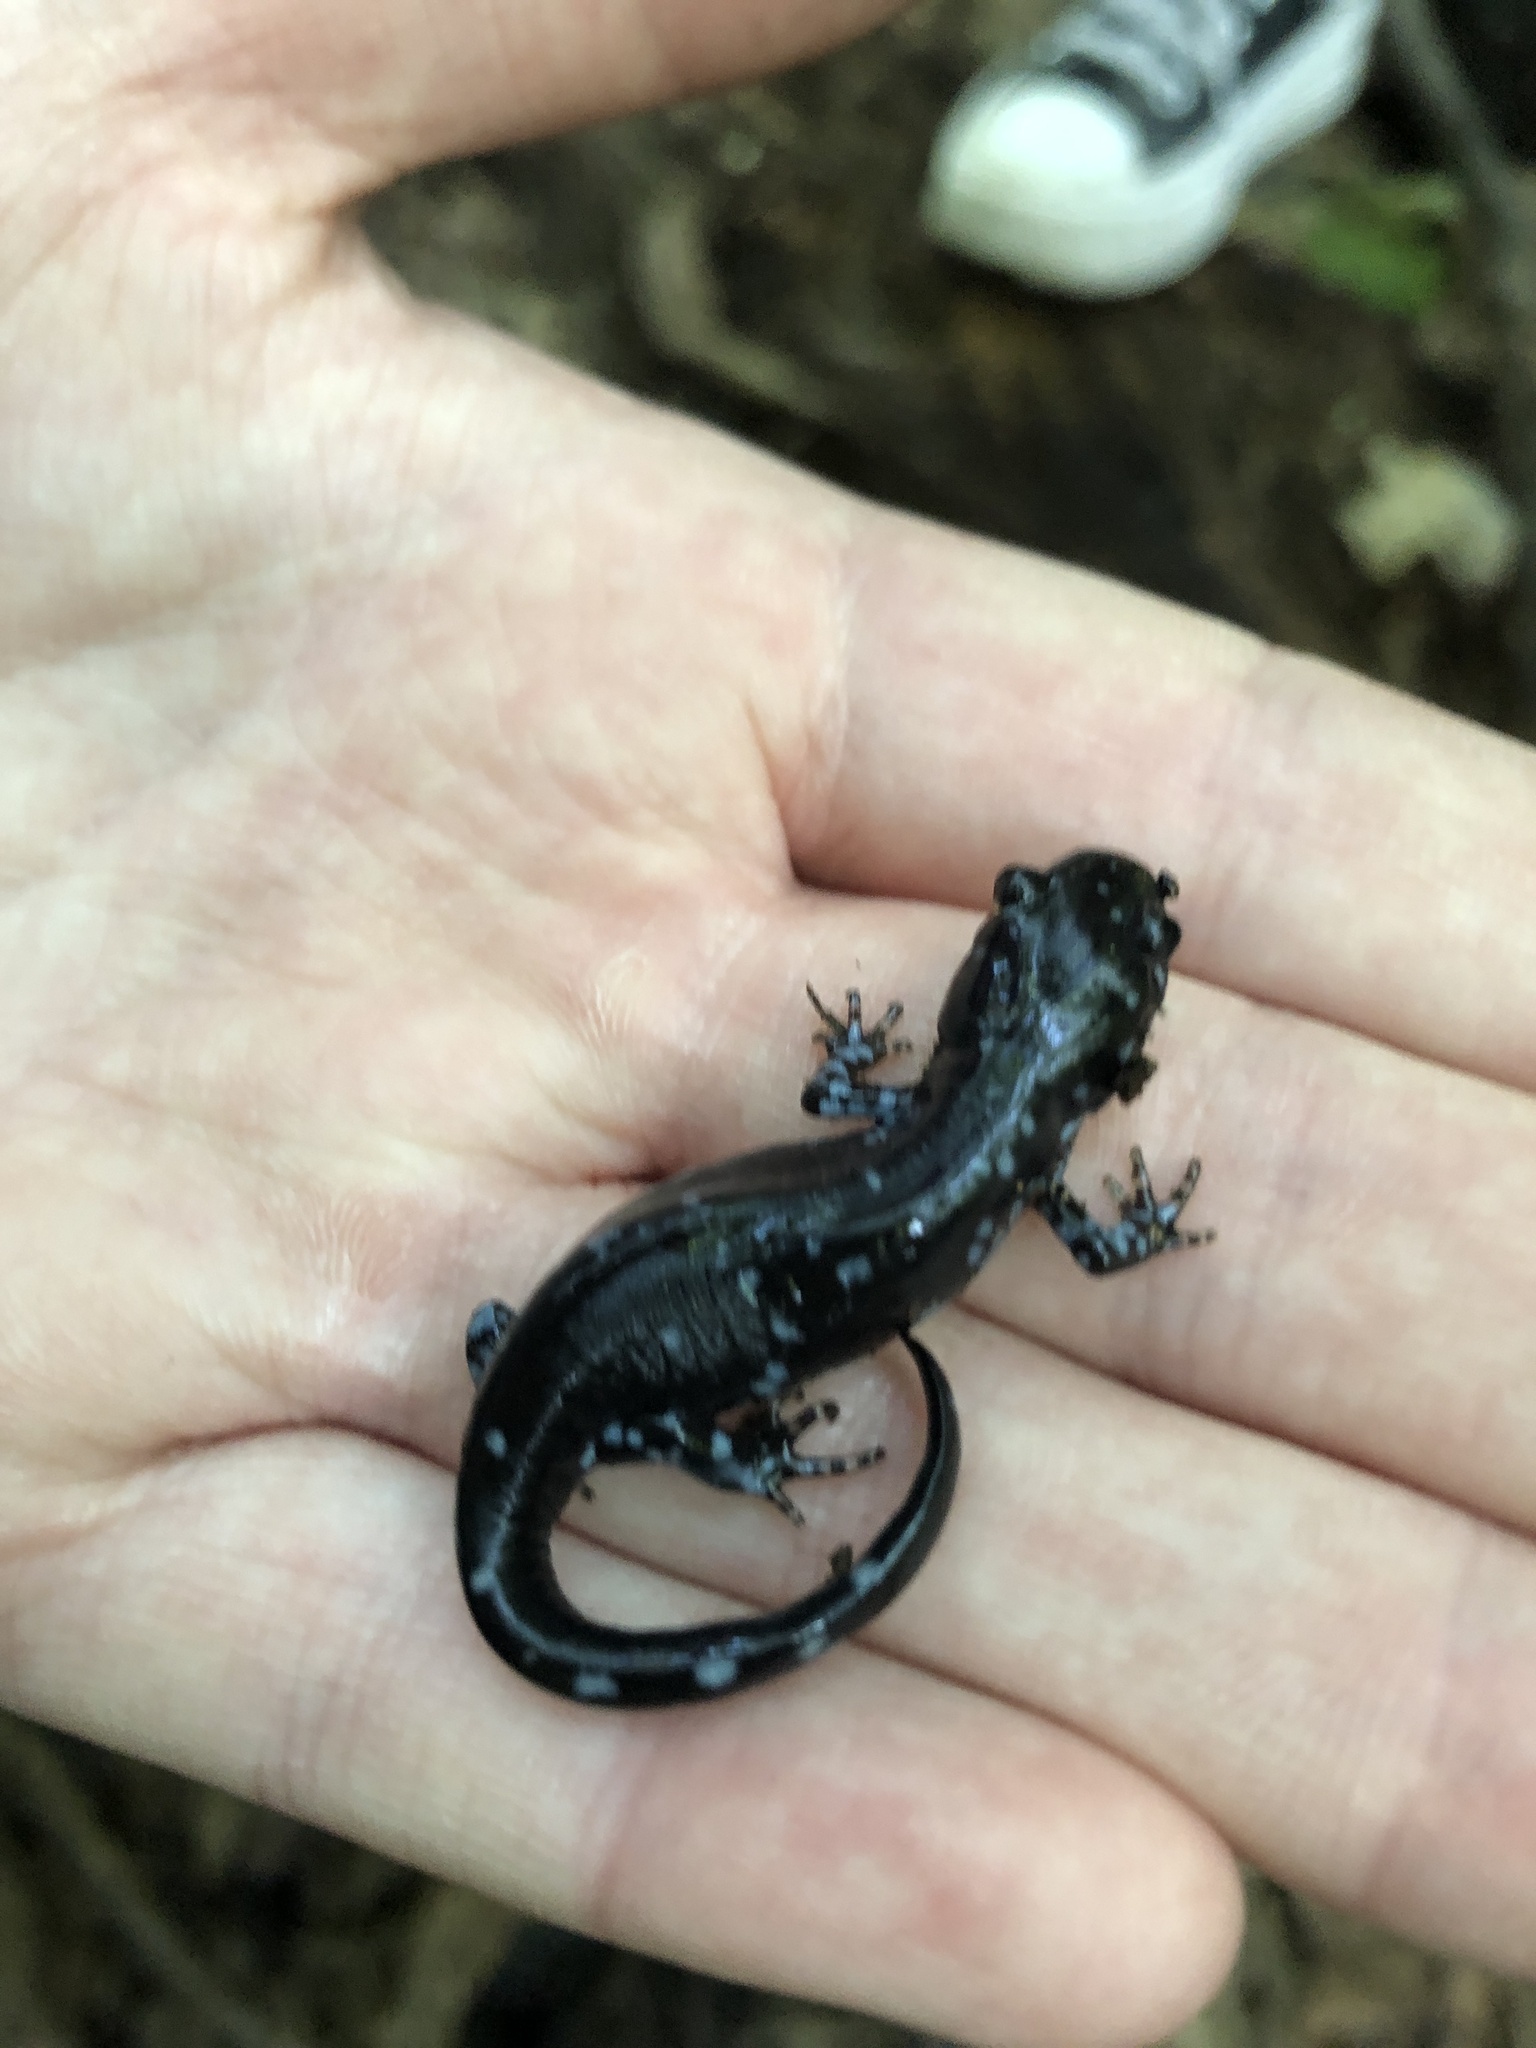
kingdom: Animalia
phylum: Chordata
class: Amphibia
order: Caudata
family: Ambystomatidae
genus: Ambystoma
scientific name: Ambystoma laterale
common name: Blue-spotted salamander
